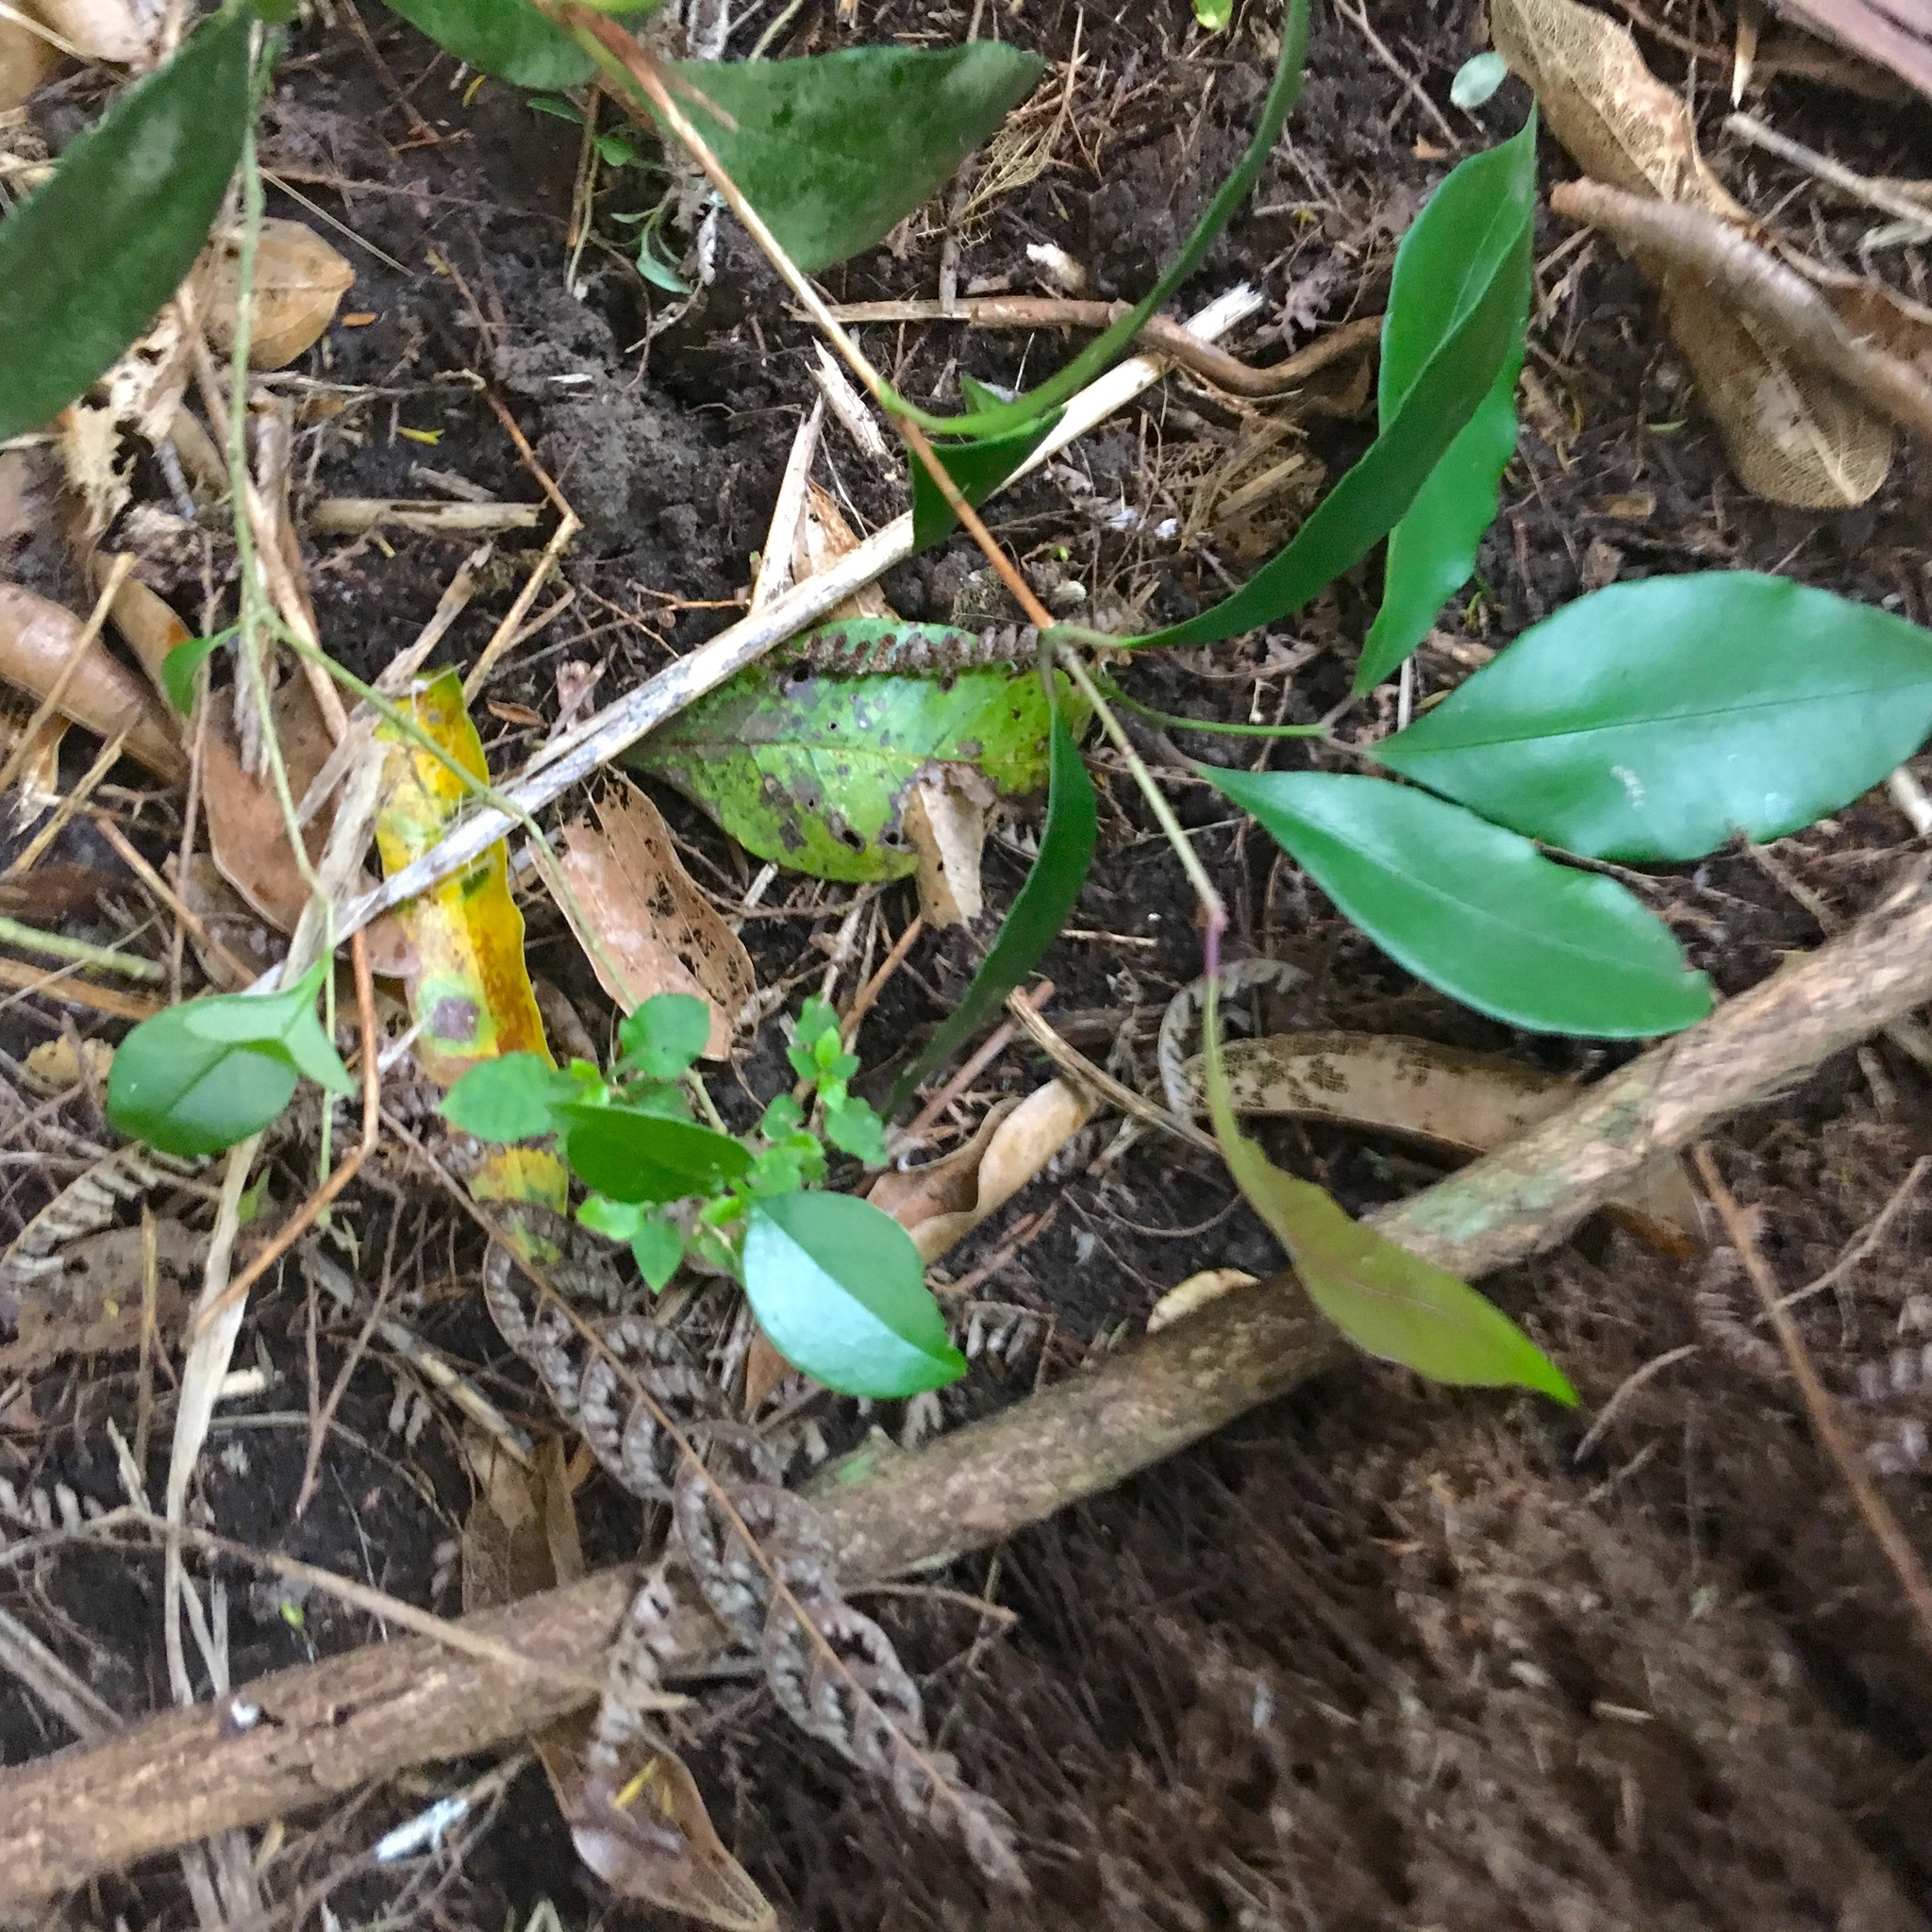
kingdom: Plantae
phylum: Tracheophyta
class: Magnoliopsida
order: Gentianales
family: Rubiaceae
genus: Coprosma
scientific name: Coprosma areolata
